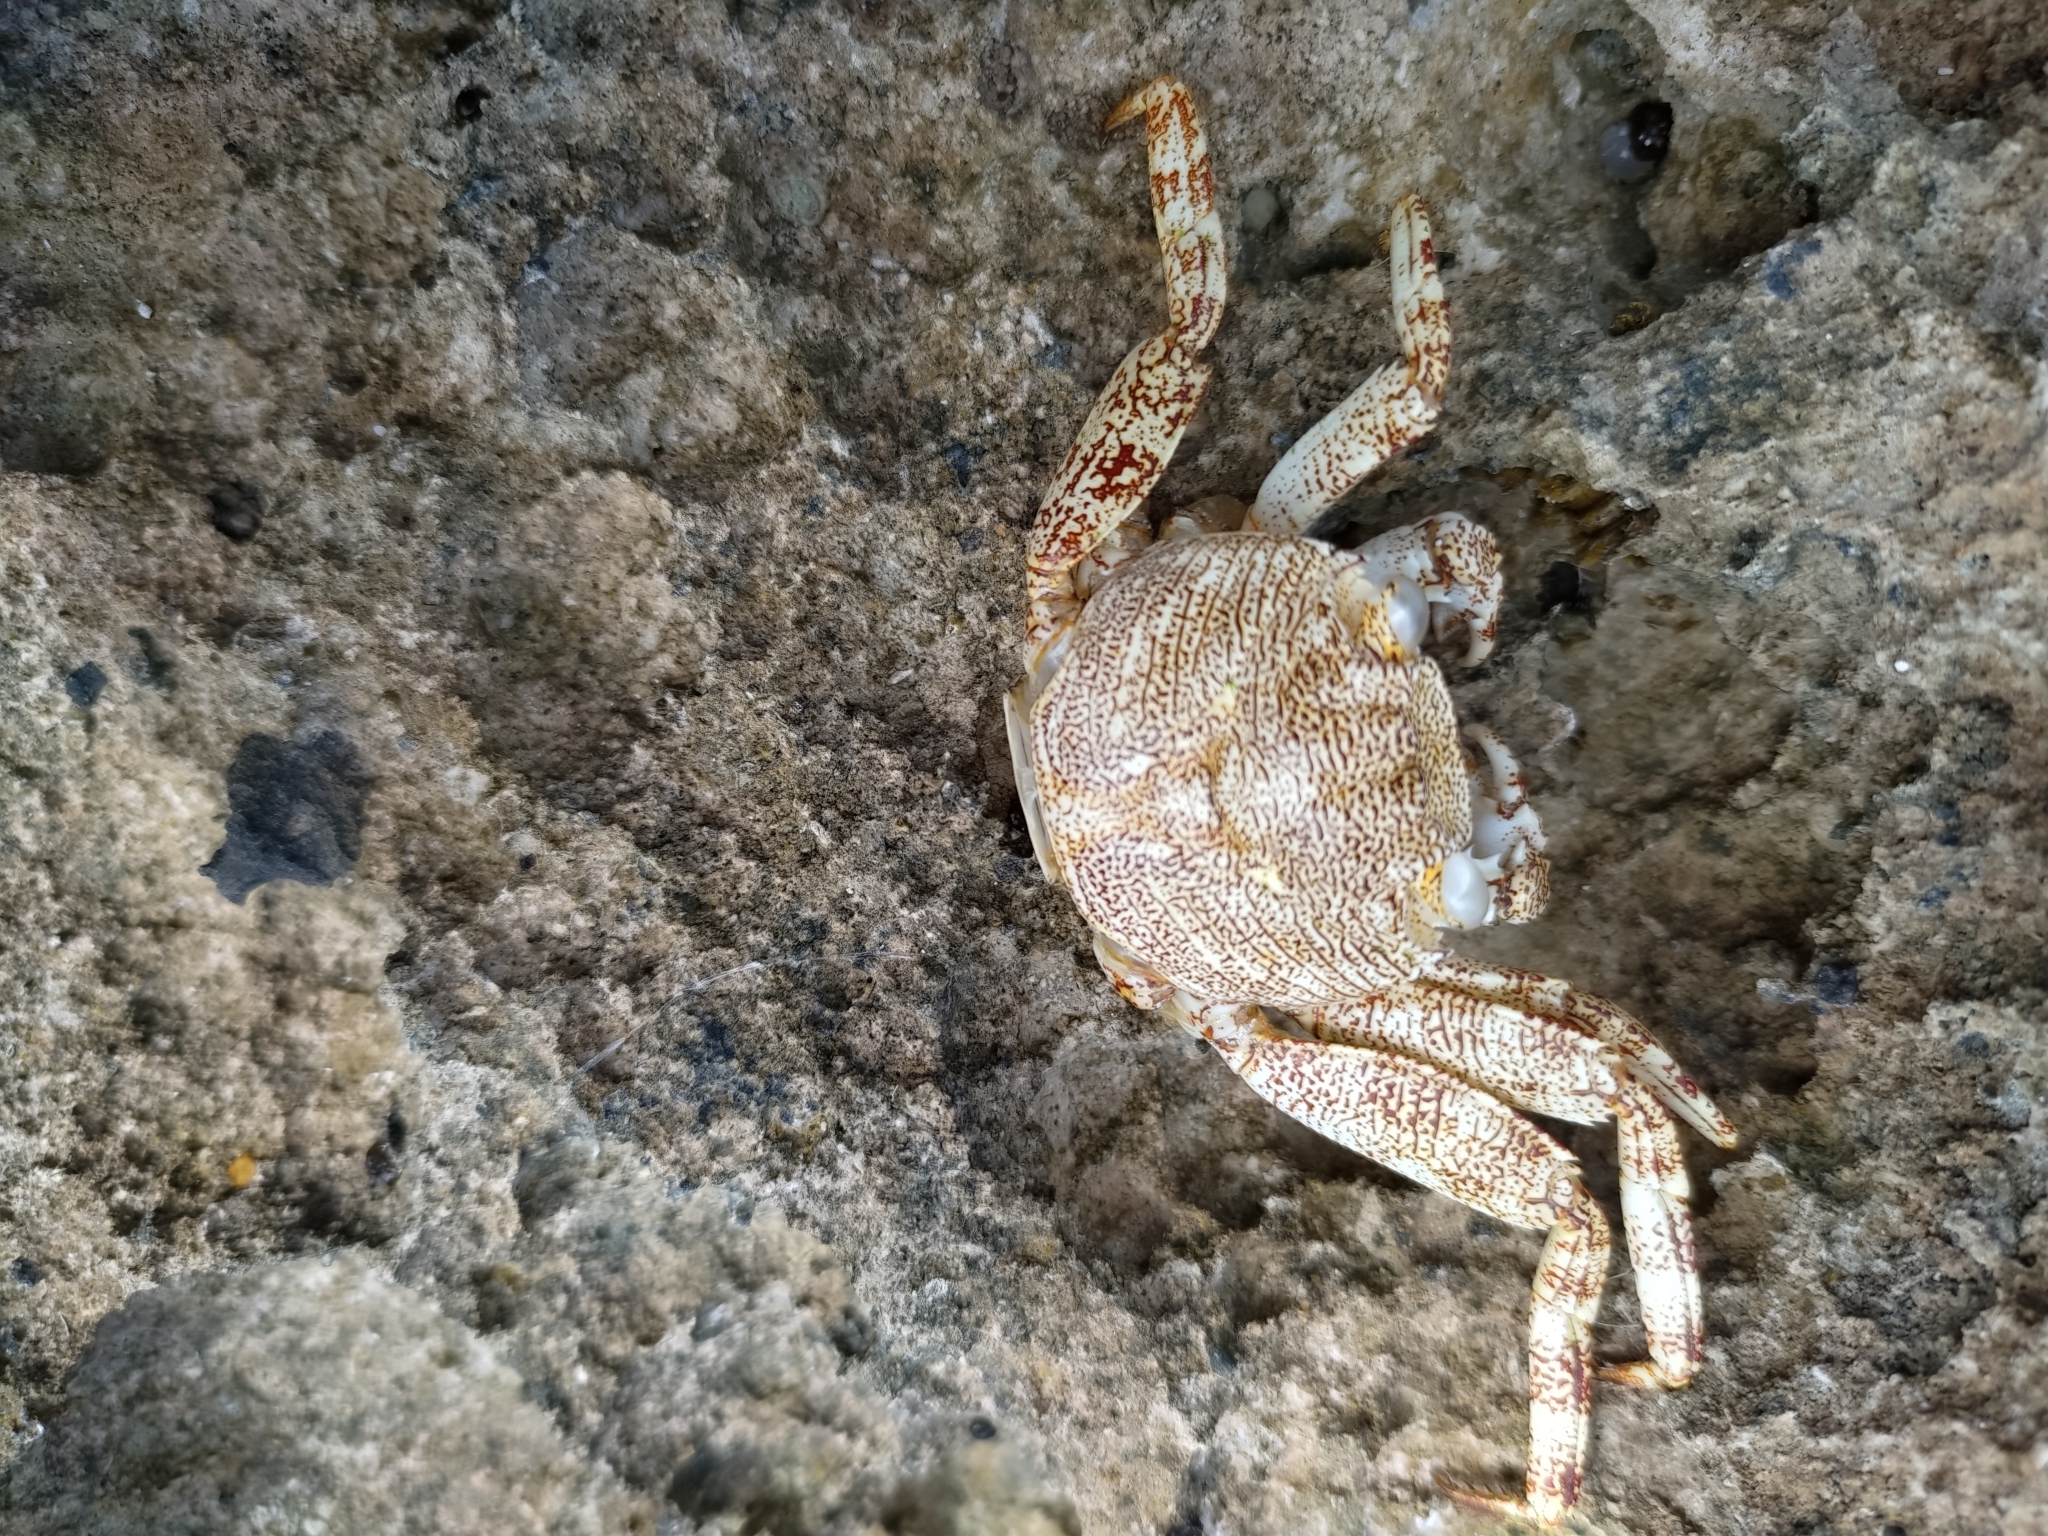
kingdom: Animalia
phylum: Arthropoda
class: Malacostraca
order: Decapoda
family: Grapsidae
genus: Grapsus
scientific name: Grapsus grapsus
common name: Sally lightfoot
